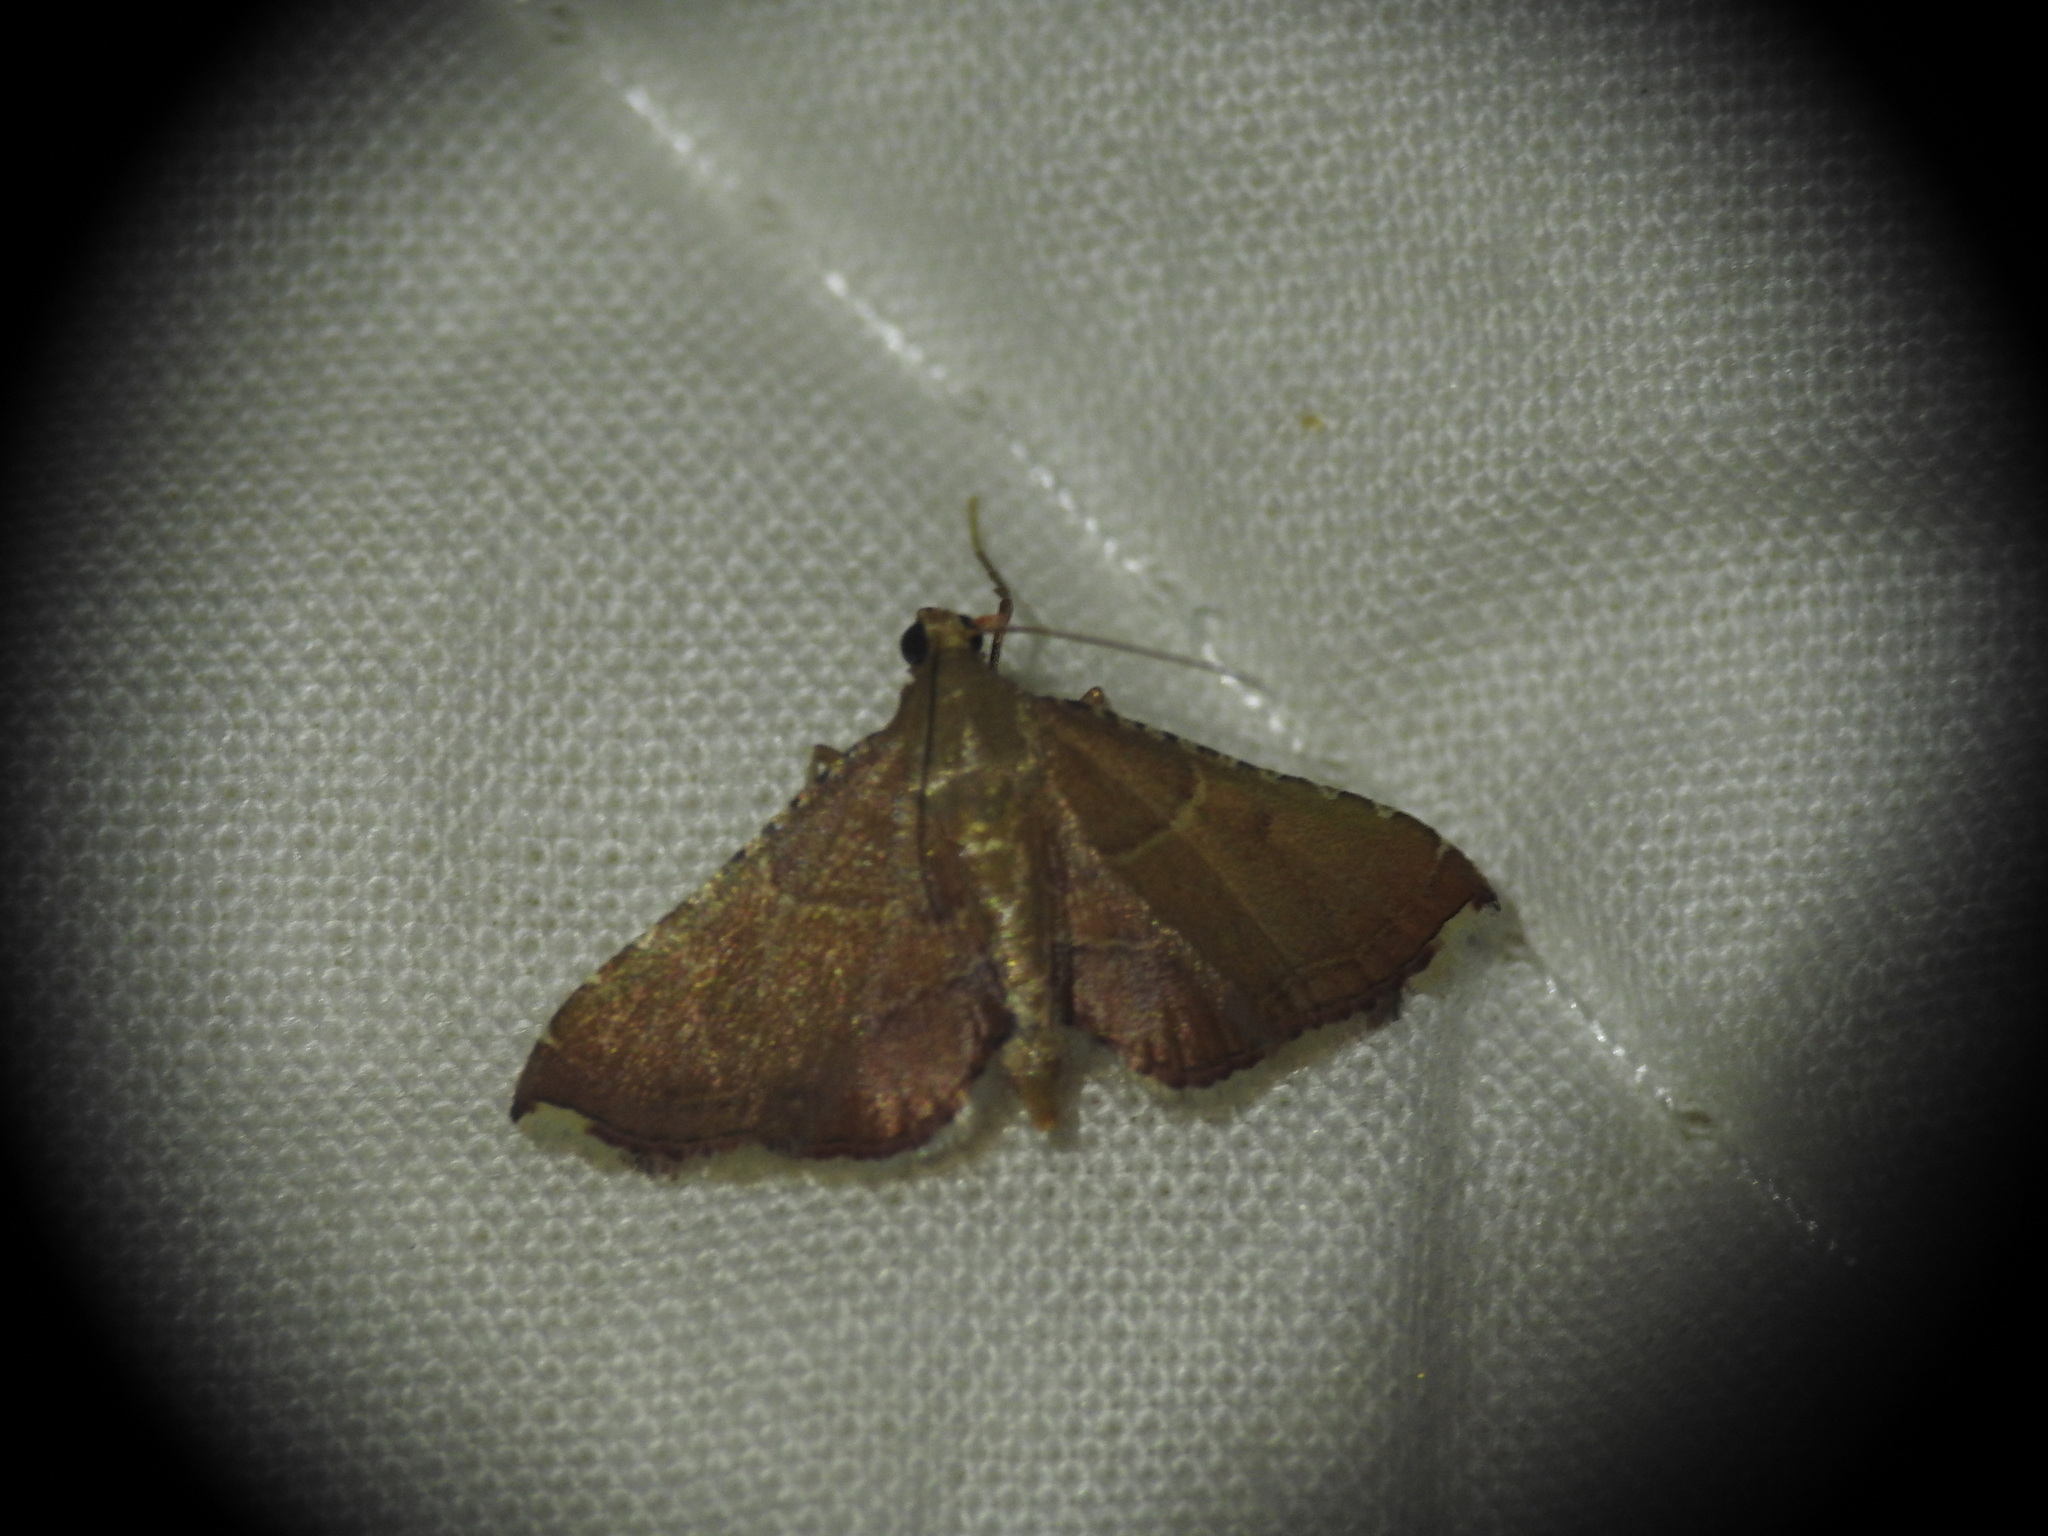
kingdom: Animalia
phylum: Arthropoda
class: Insecta
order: Lepidoptera
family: Pyralidae
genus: Endotricha
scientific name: Endotricha flammealis
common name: Rosy tabby
